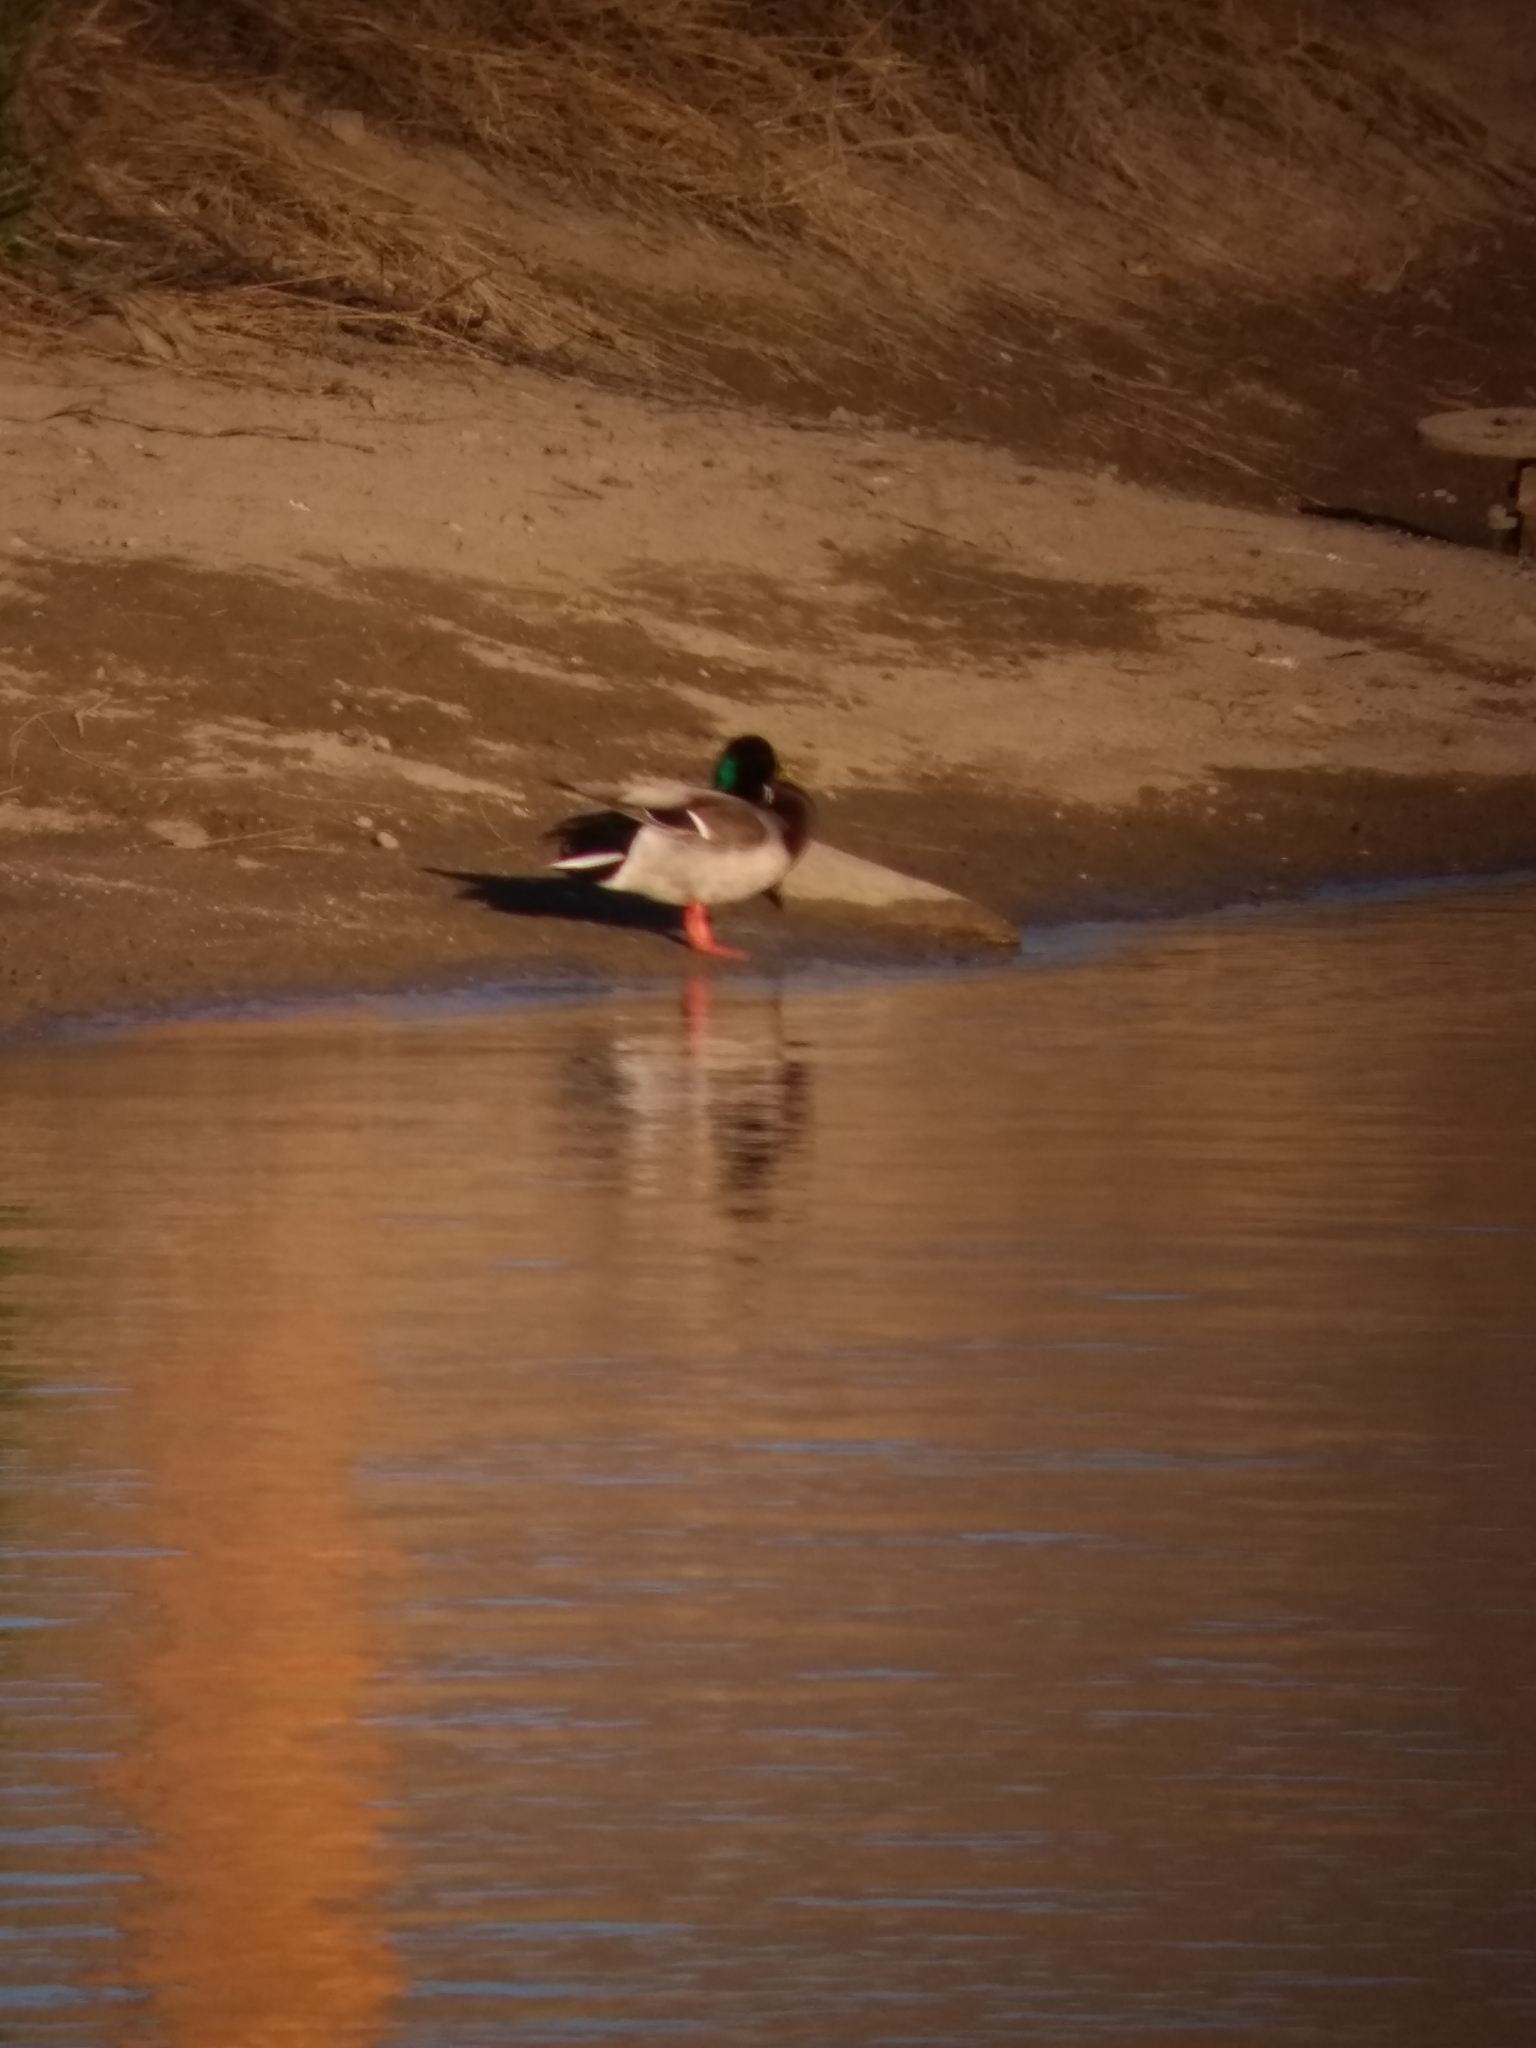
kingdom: Animalia
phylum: Chordata
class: Aves
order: Anseriformes
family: Anatidae
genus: Anas
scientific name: Anas platyrhynchos
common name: Mallard
